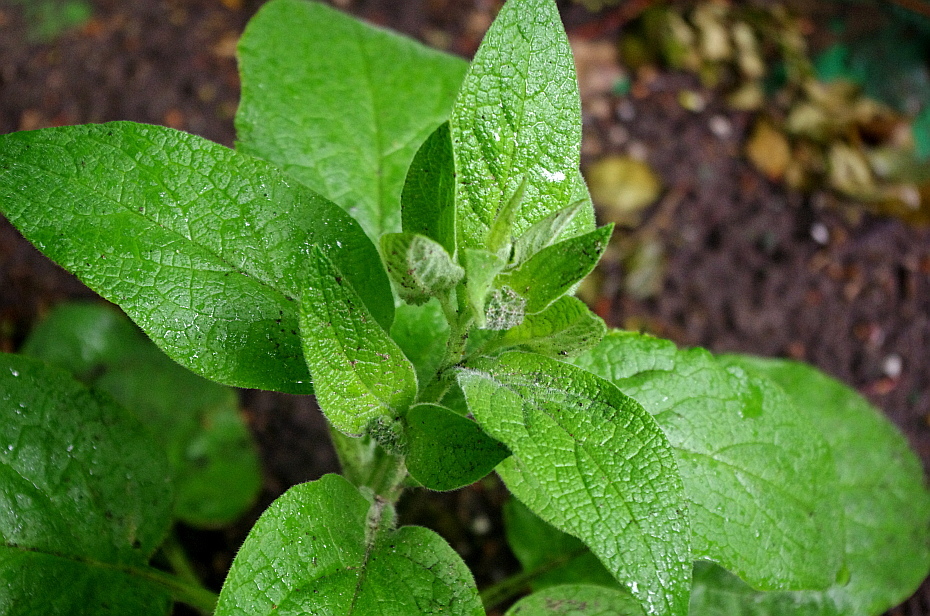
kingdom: Plantae
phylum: Tracheophyta
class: Magnoliopsida
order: Boraginales
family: Boraginaceae
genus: Symphytum
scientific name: Symphytum caucasicum
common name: Caucasian comfrey
